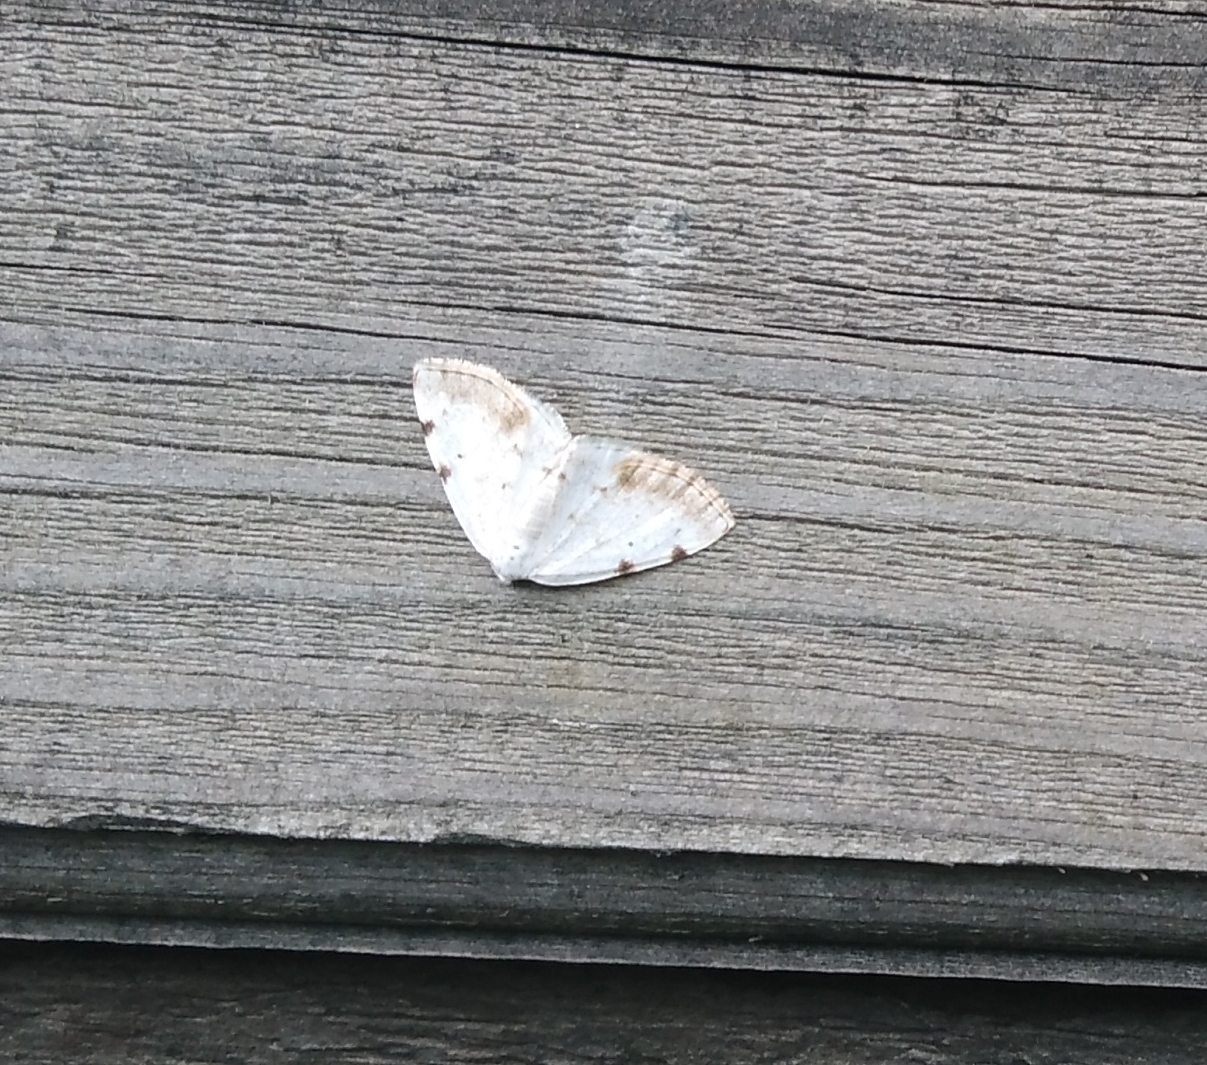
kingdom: Animalia
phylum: Arthropoda
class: Insecta
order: Lepidoptera
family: Geometridae
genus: Lomographa
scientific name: Lomographa bimaculata
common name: White-pinion spotted
